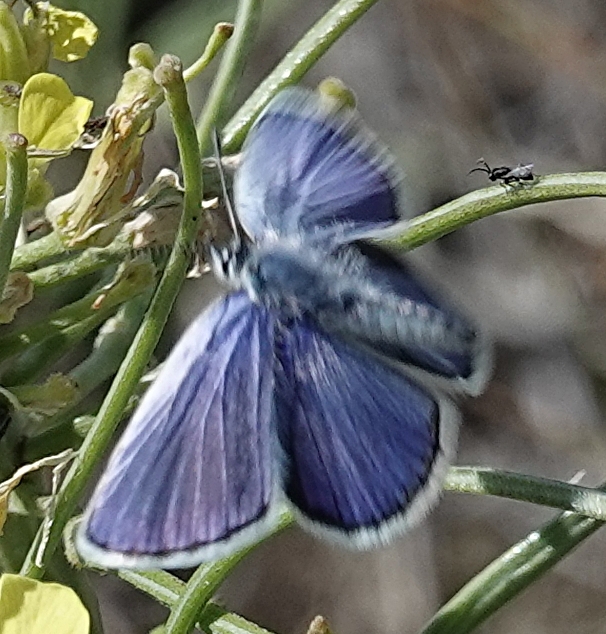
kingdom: Animalia
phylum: Arthropoda
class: Insecta
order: Lepidoptera
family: Lycaenidae
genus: Lycaeides
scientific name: Lycaeides melissa
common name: Melissa blue
